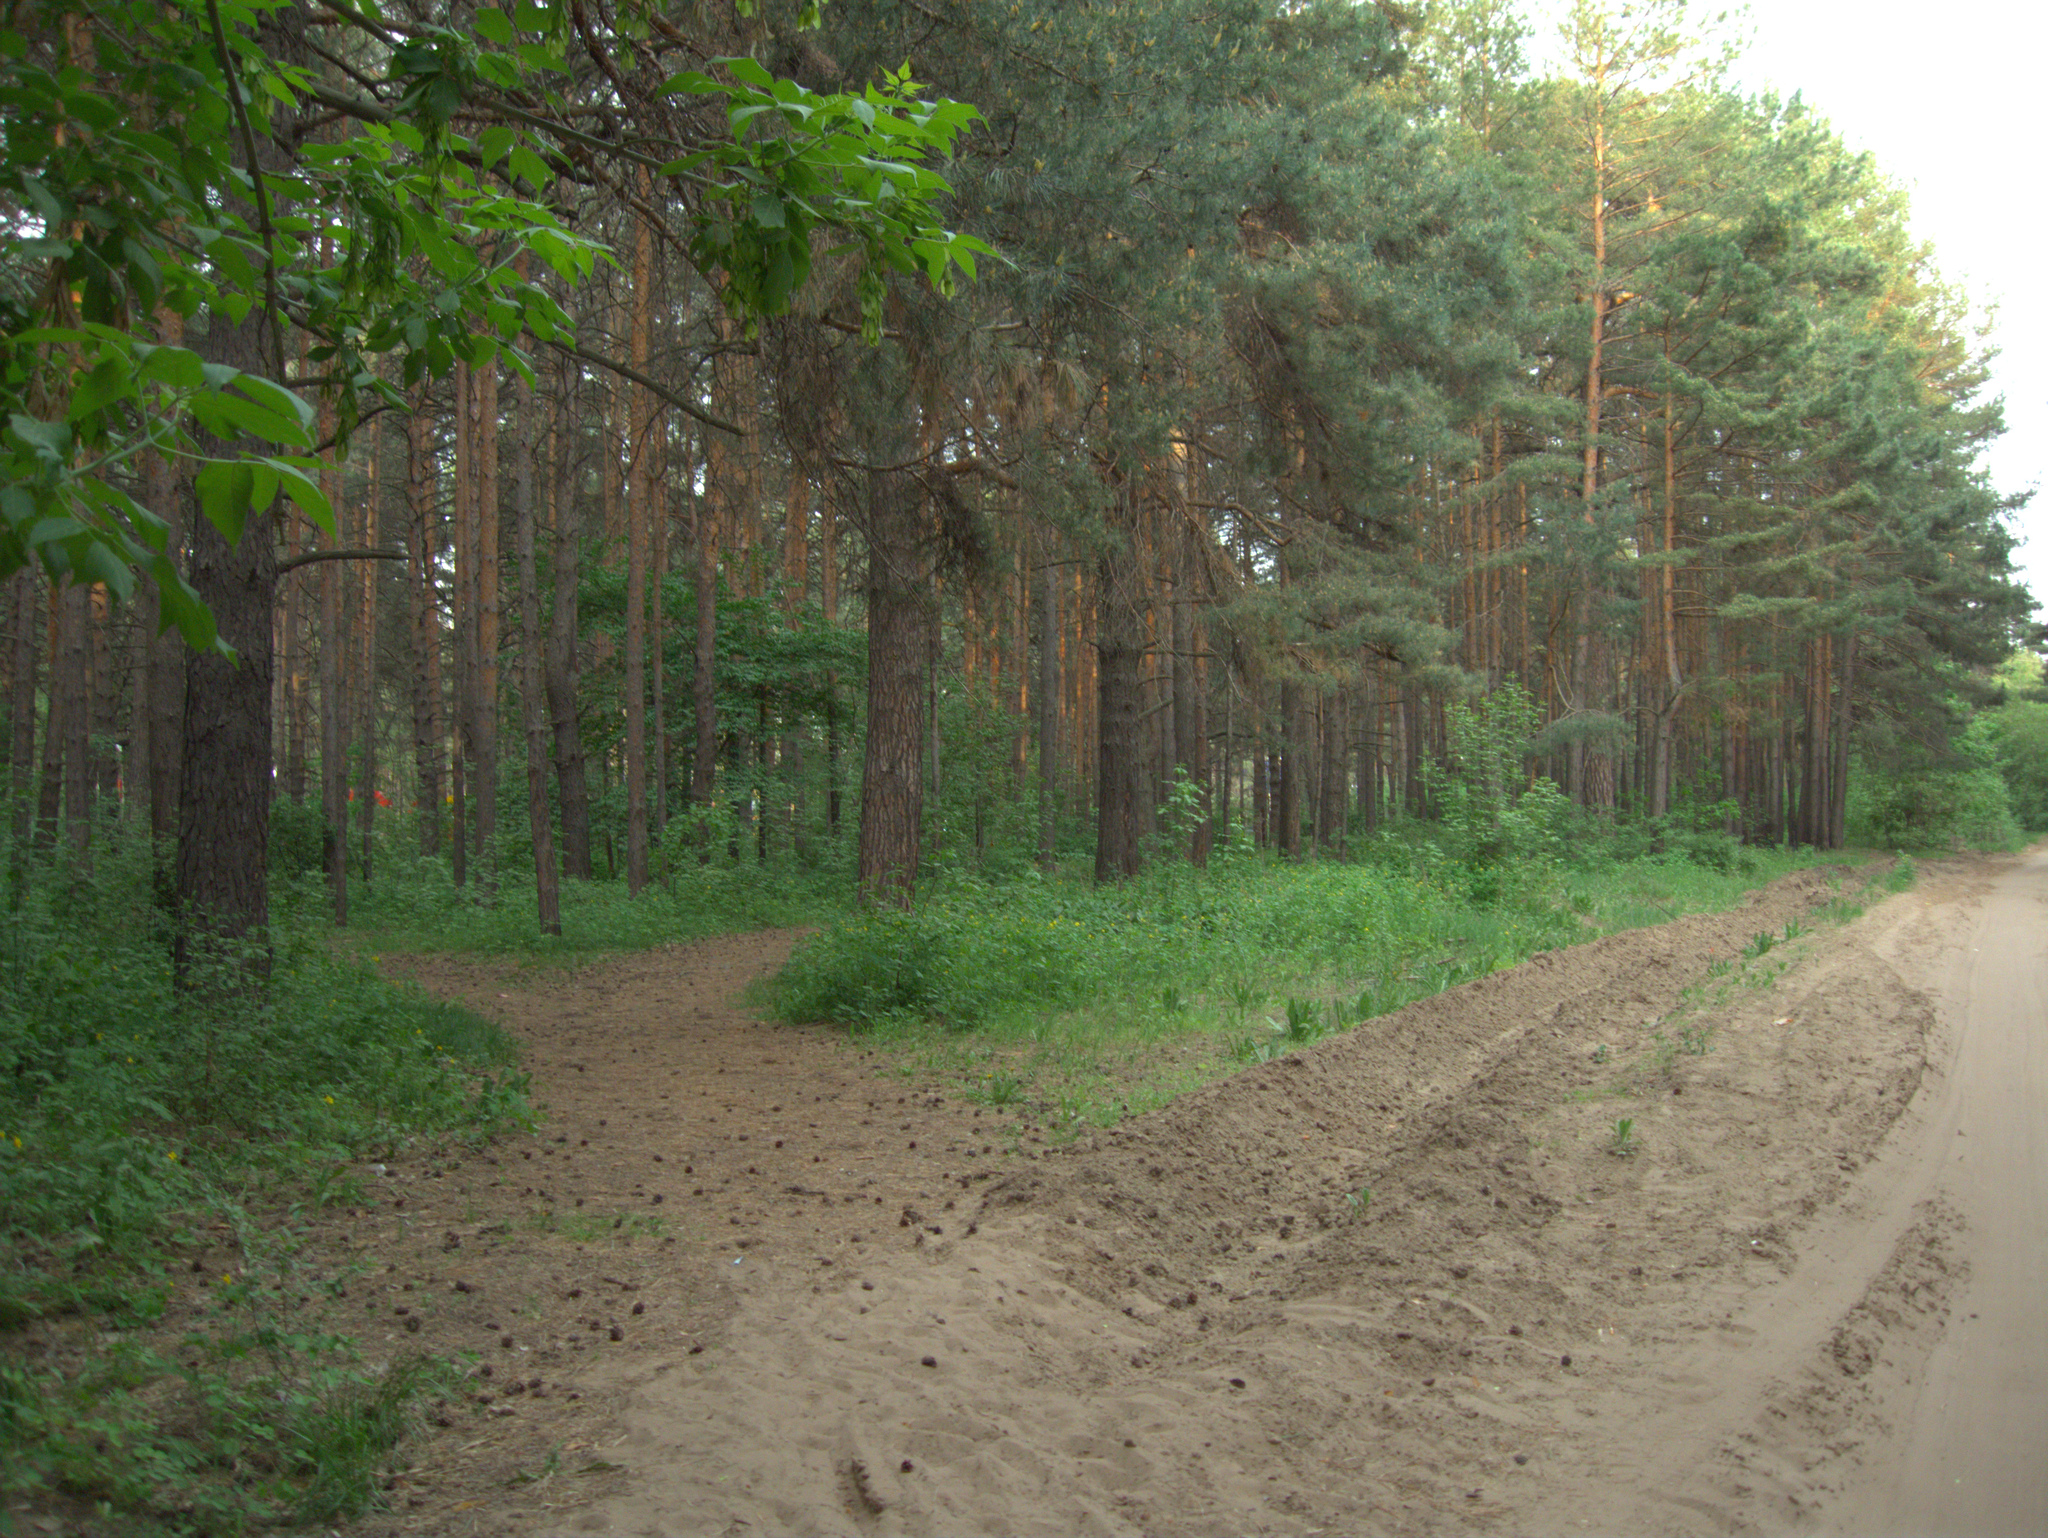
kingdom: Plantae
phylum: Tracheophyta
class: Magnoliopsida
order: Sapindales
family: Sapindaceae
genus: Acer
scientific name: Acer negundo
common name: Ashleaf maple
